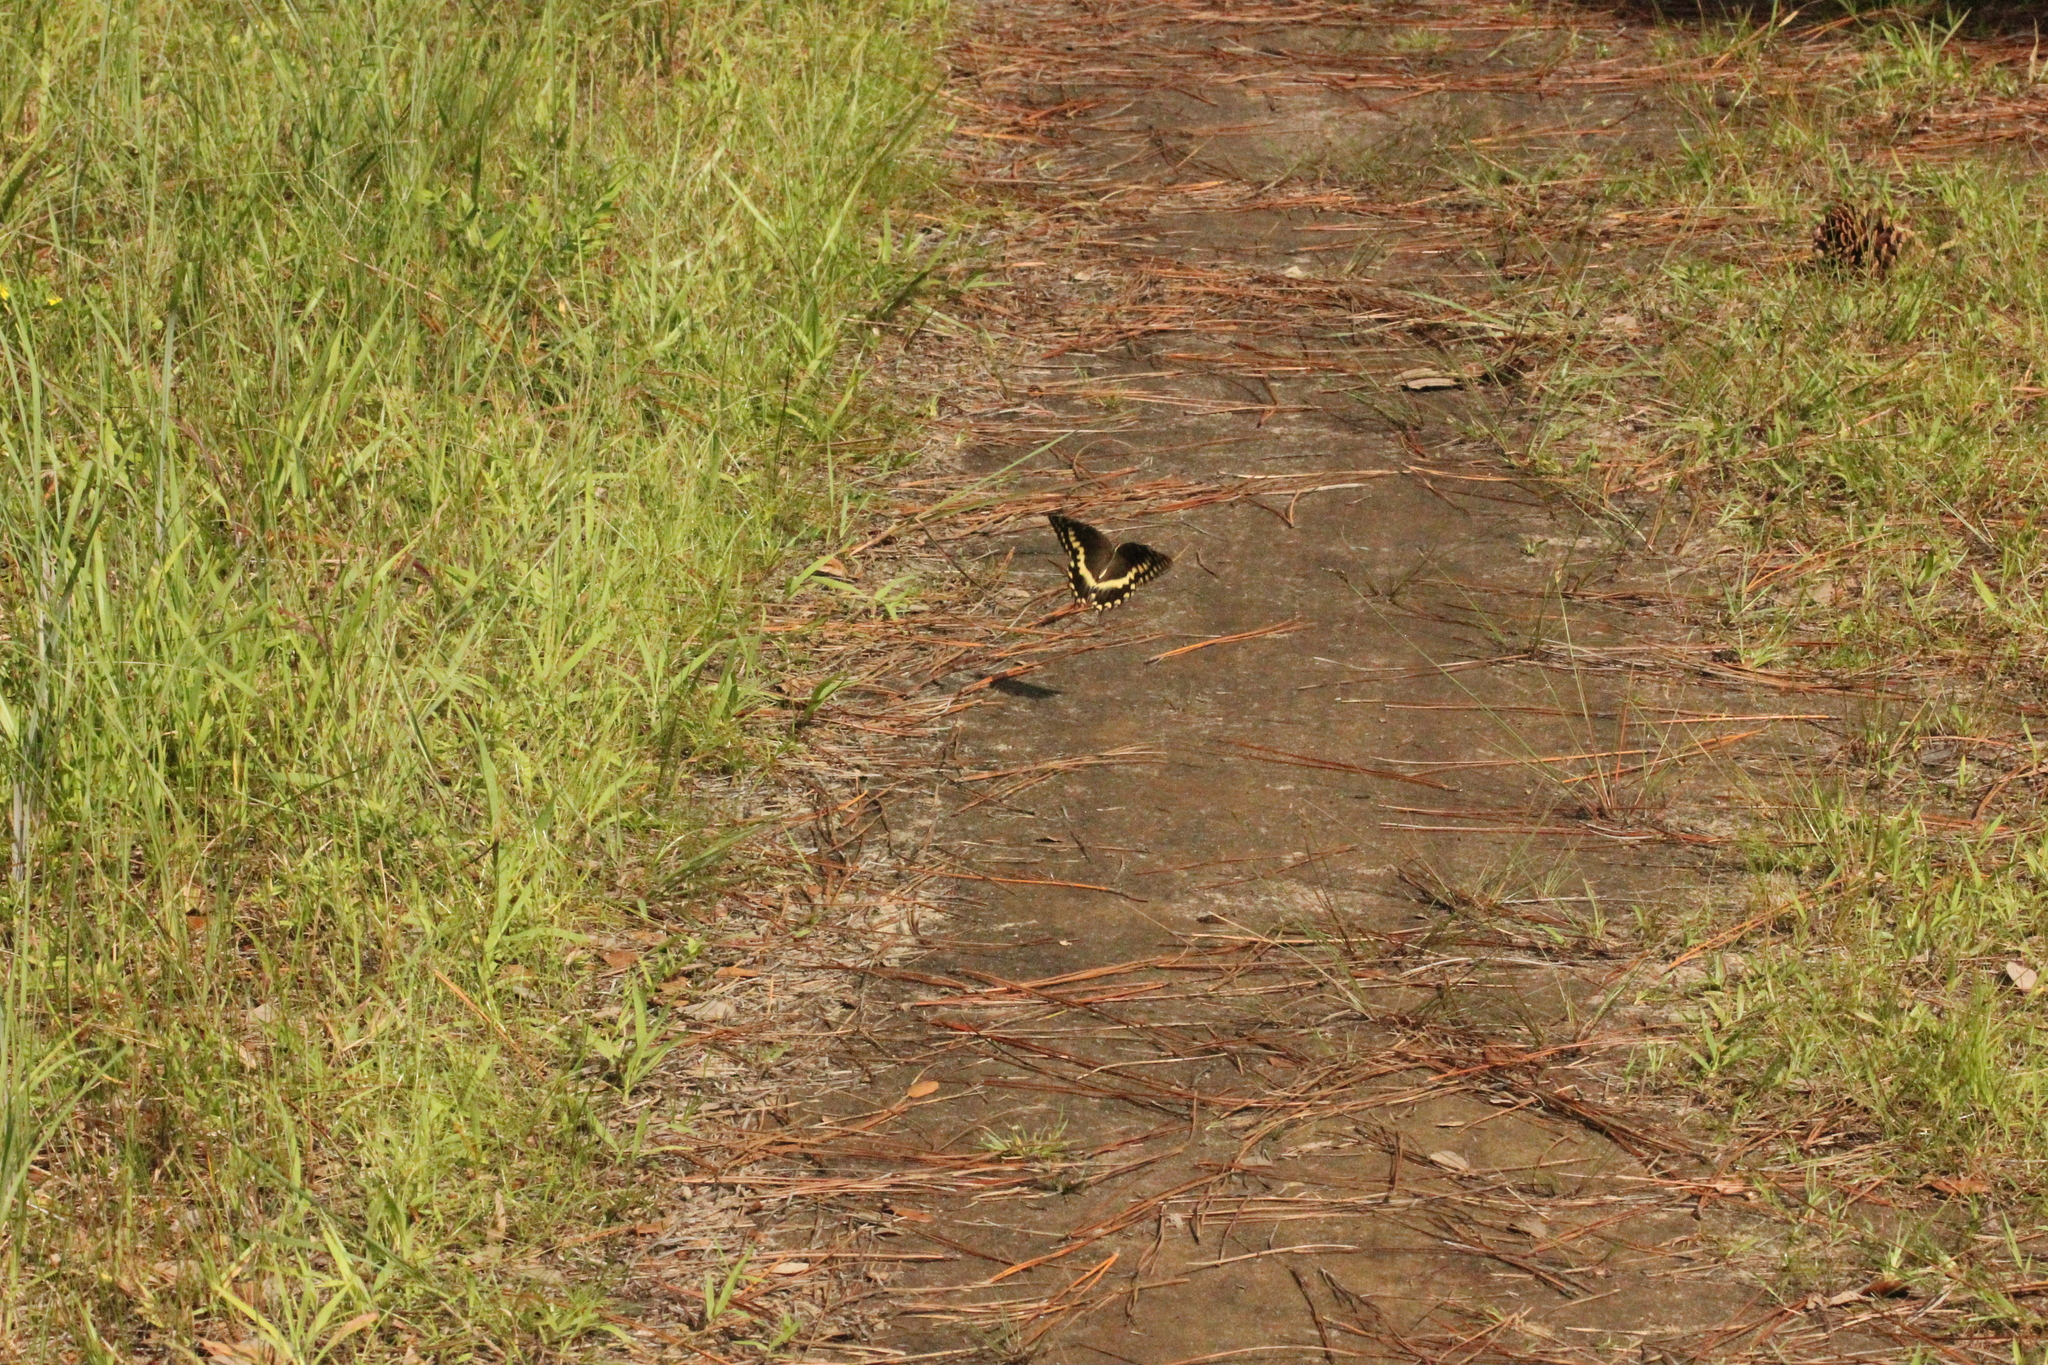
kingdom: Animalia
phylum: Arthropoda
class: Insecta
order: Lepidoptera
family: Papilionidae
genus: Papilio
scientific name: Papilio palamedes
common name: Palamedes swallowtail
